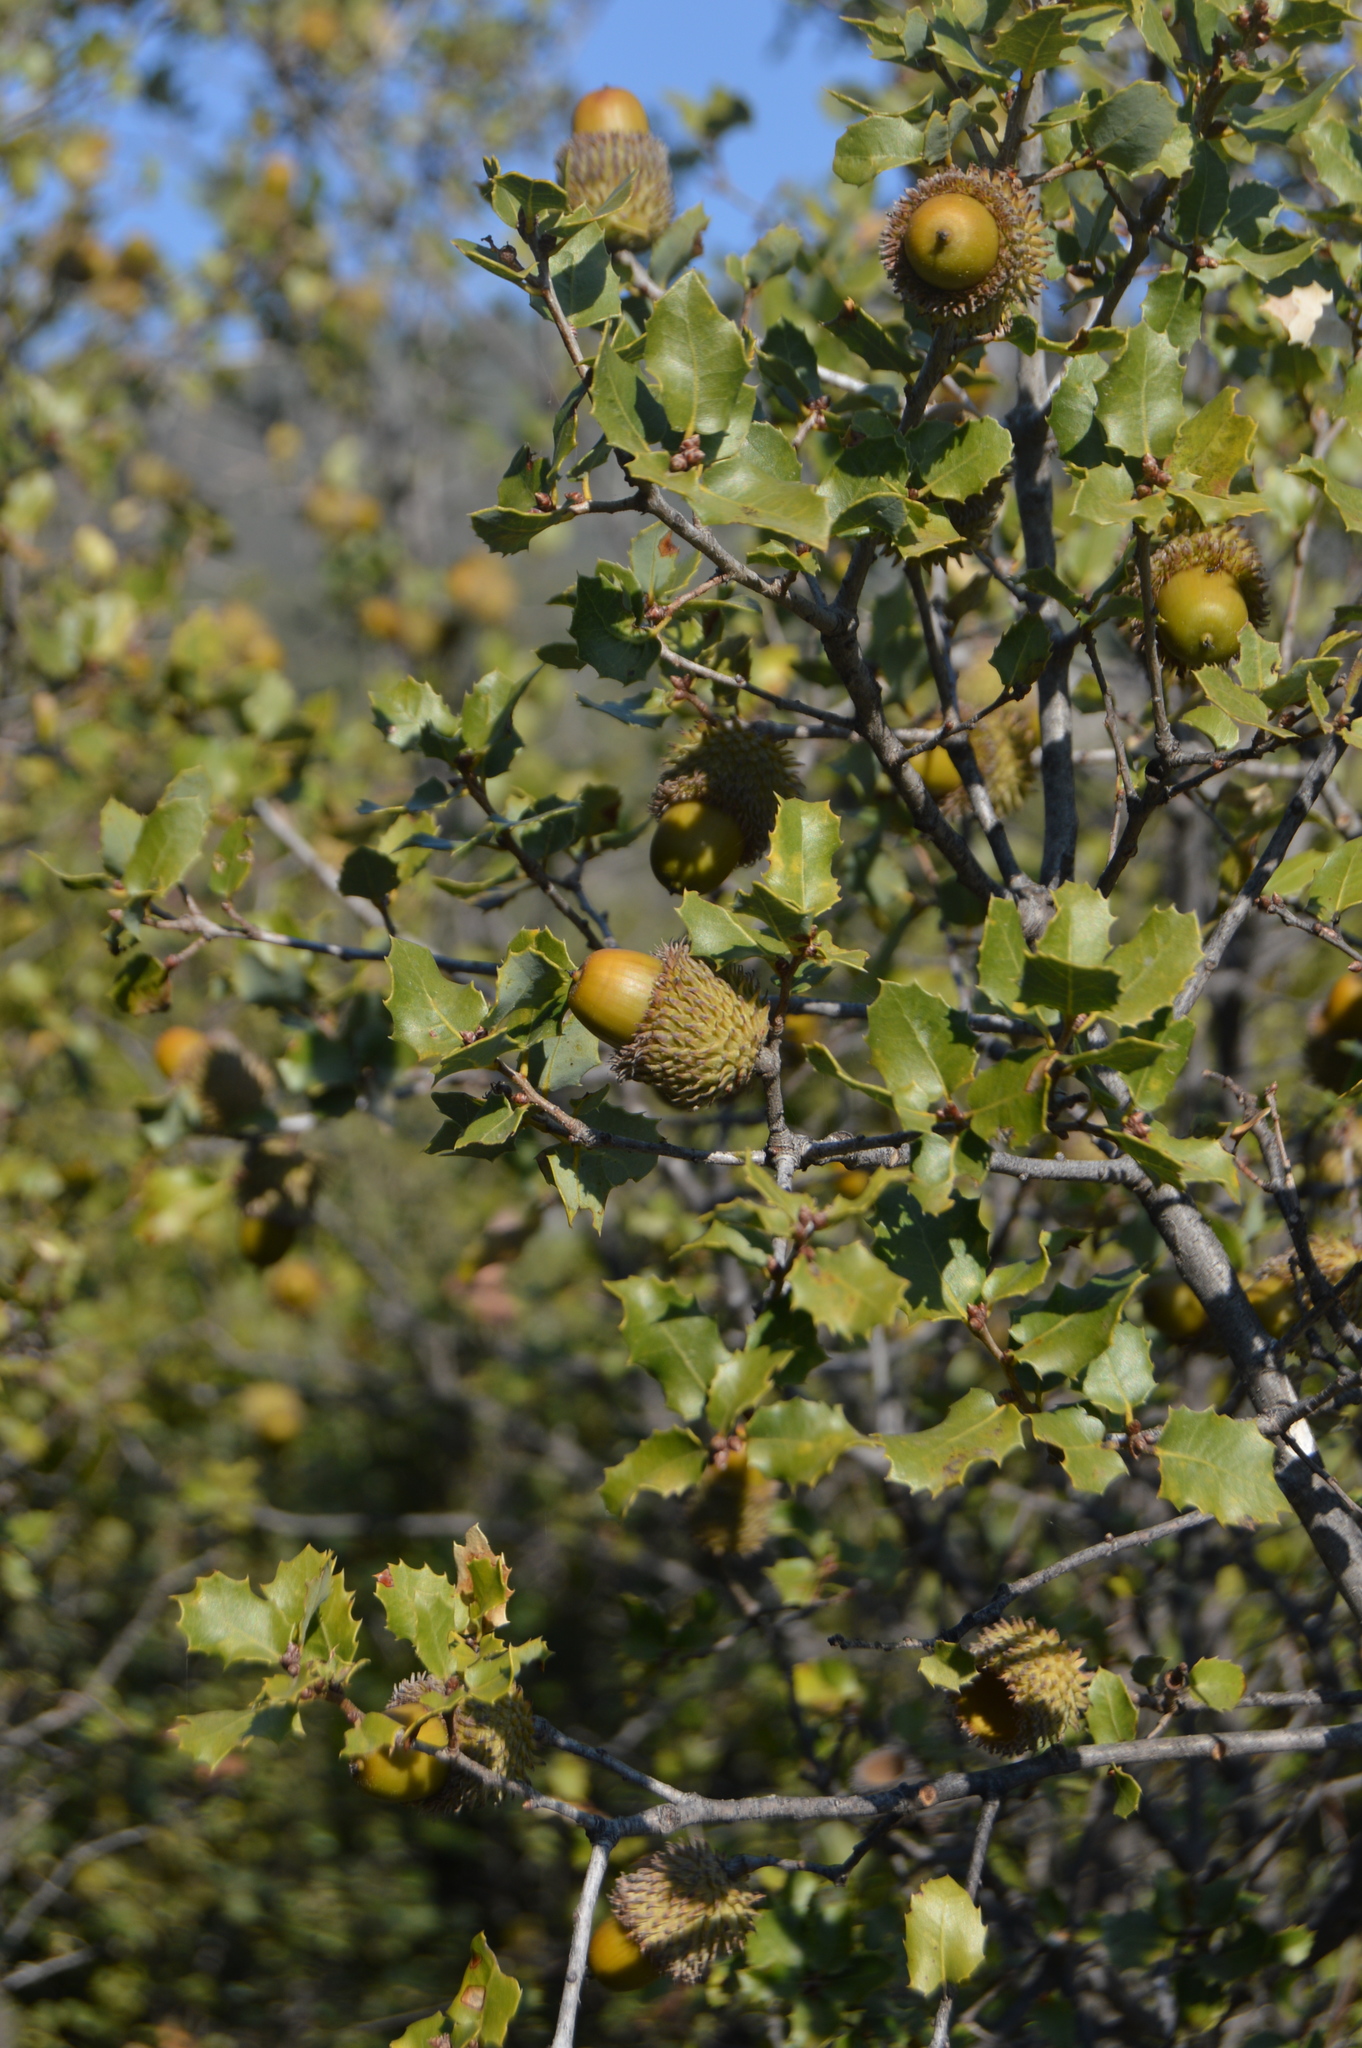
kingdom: Plantae
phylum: Tracheophyta
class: Magnoliopsida
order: Fagales
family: Fagaceae
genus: Quercus
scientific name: Quercus coccifera
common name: Kermes oak
